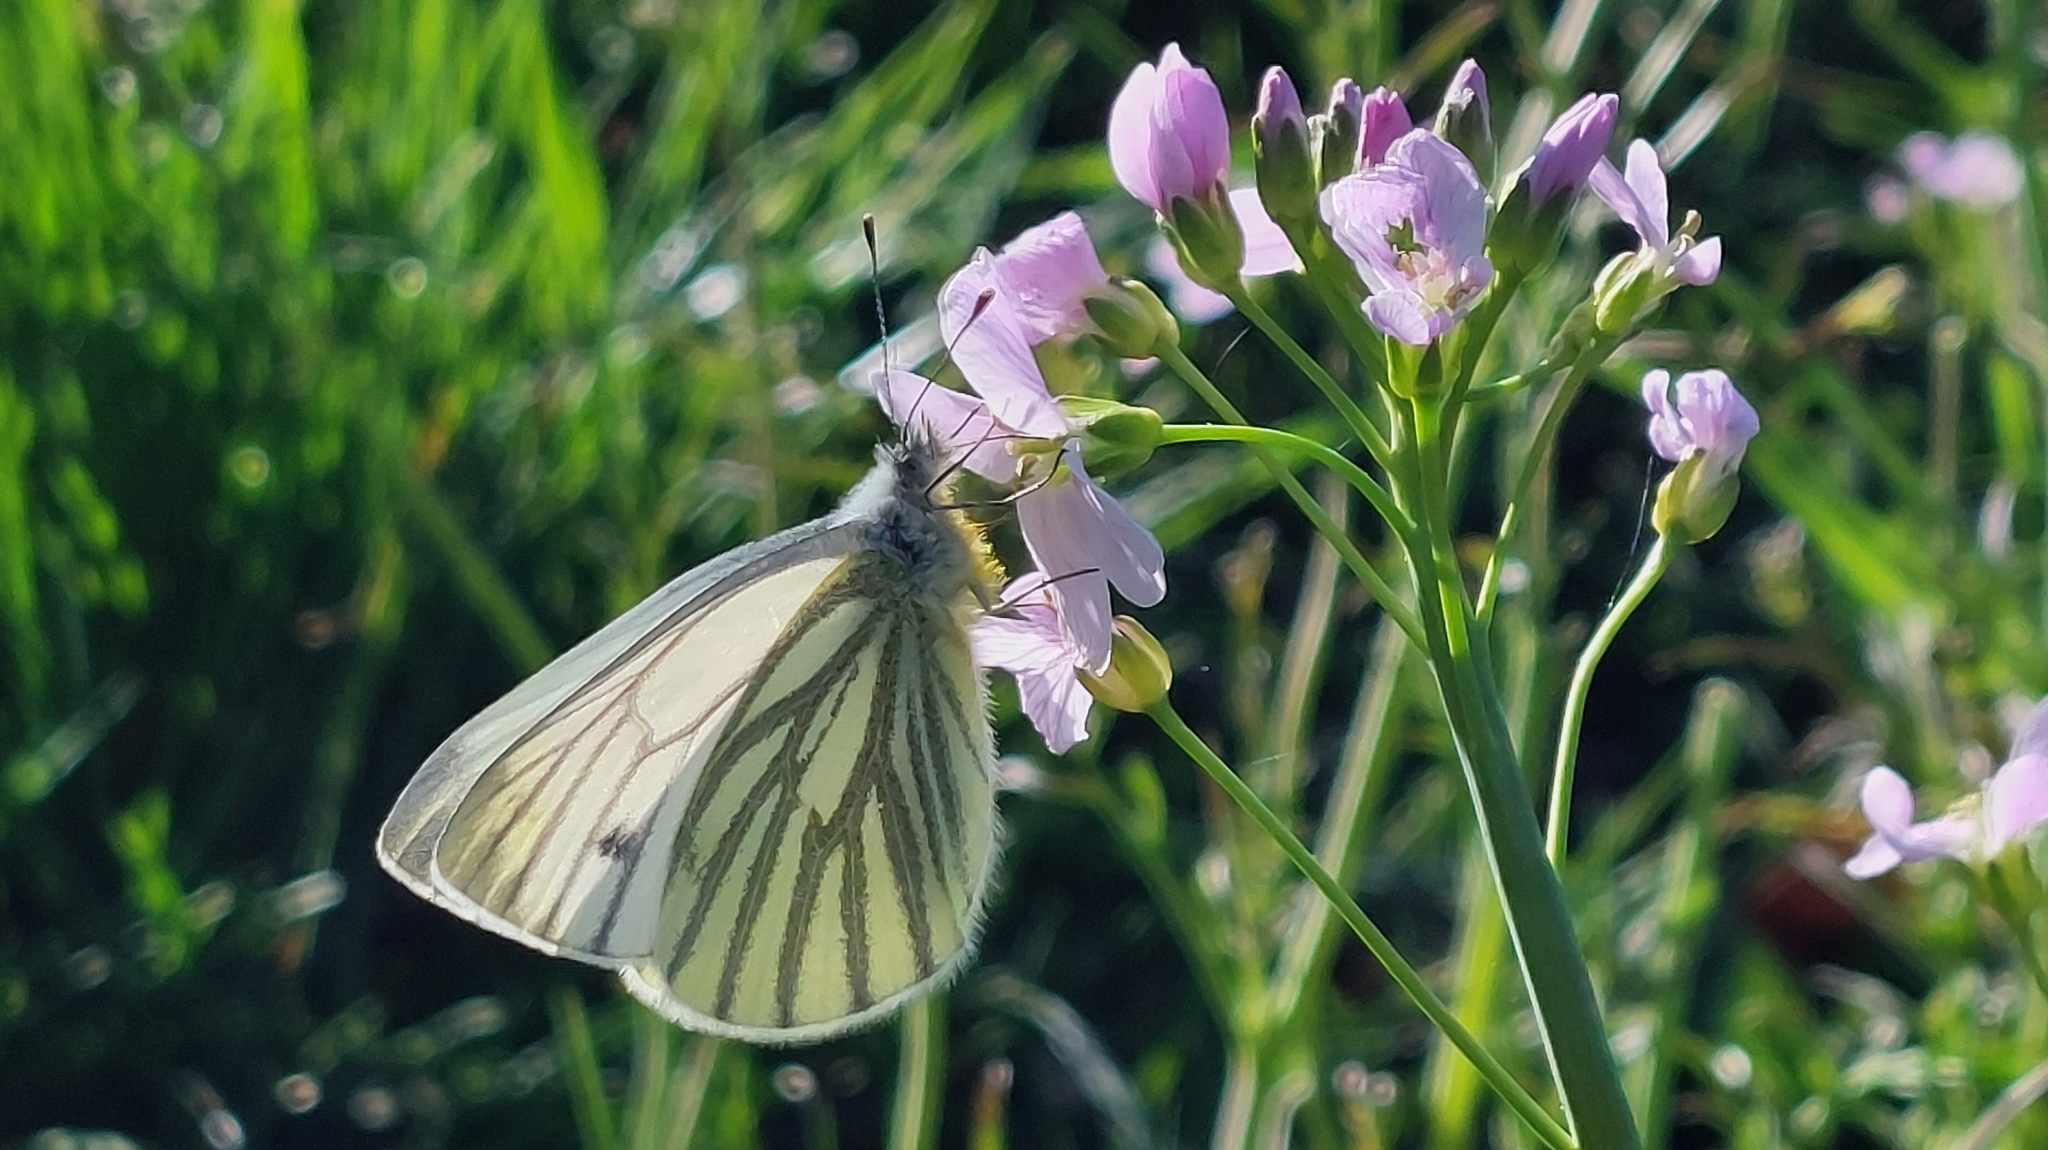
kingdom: Animalia
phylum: Arthropoda
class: Insecta
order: Lepidoptera
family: Pieridae
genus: Pieris
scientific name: Pieris napi
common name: Green-veined white
